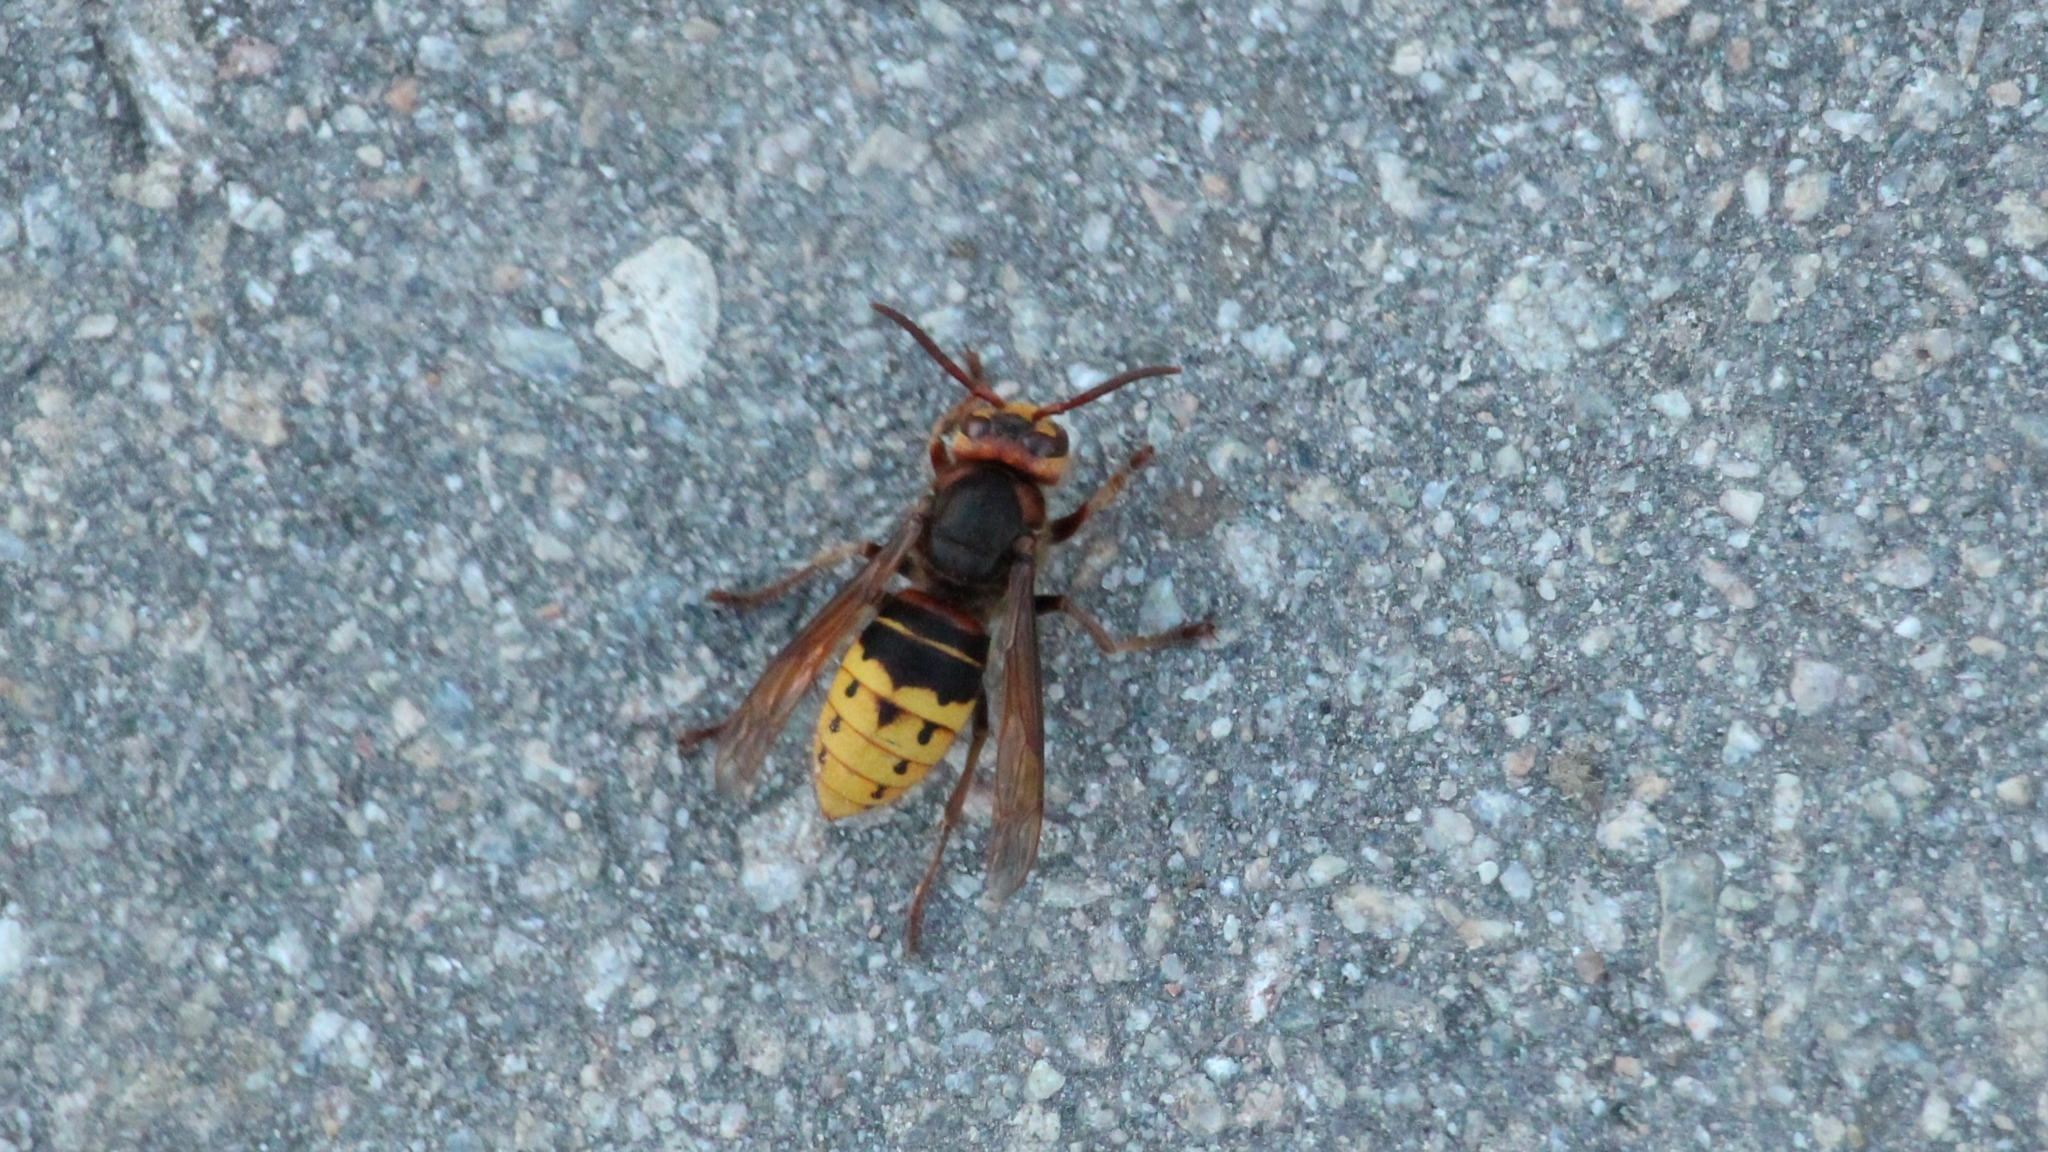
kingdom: Animalia
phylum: Arthropoda
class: Insecta
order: Hymenoptera
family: Vespidae
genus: Vespa
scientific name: Vespa crabro
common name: Hornet
